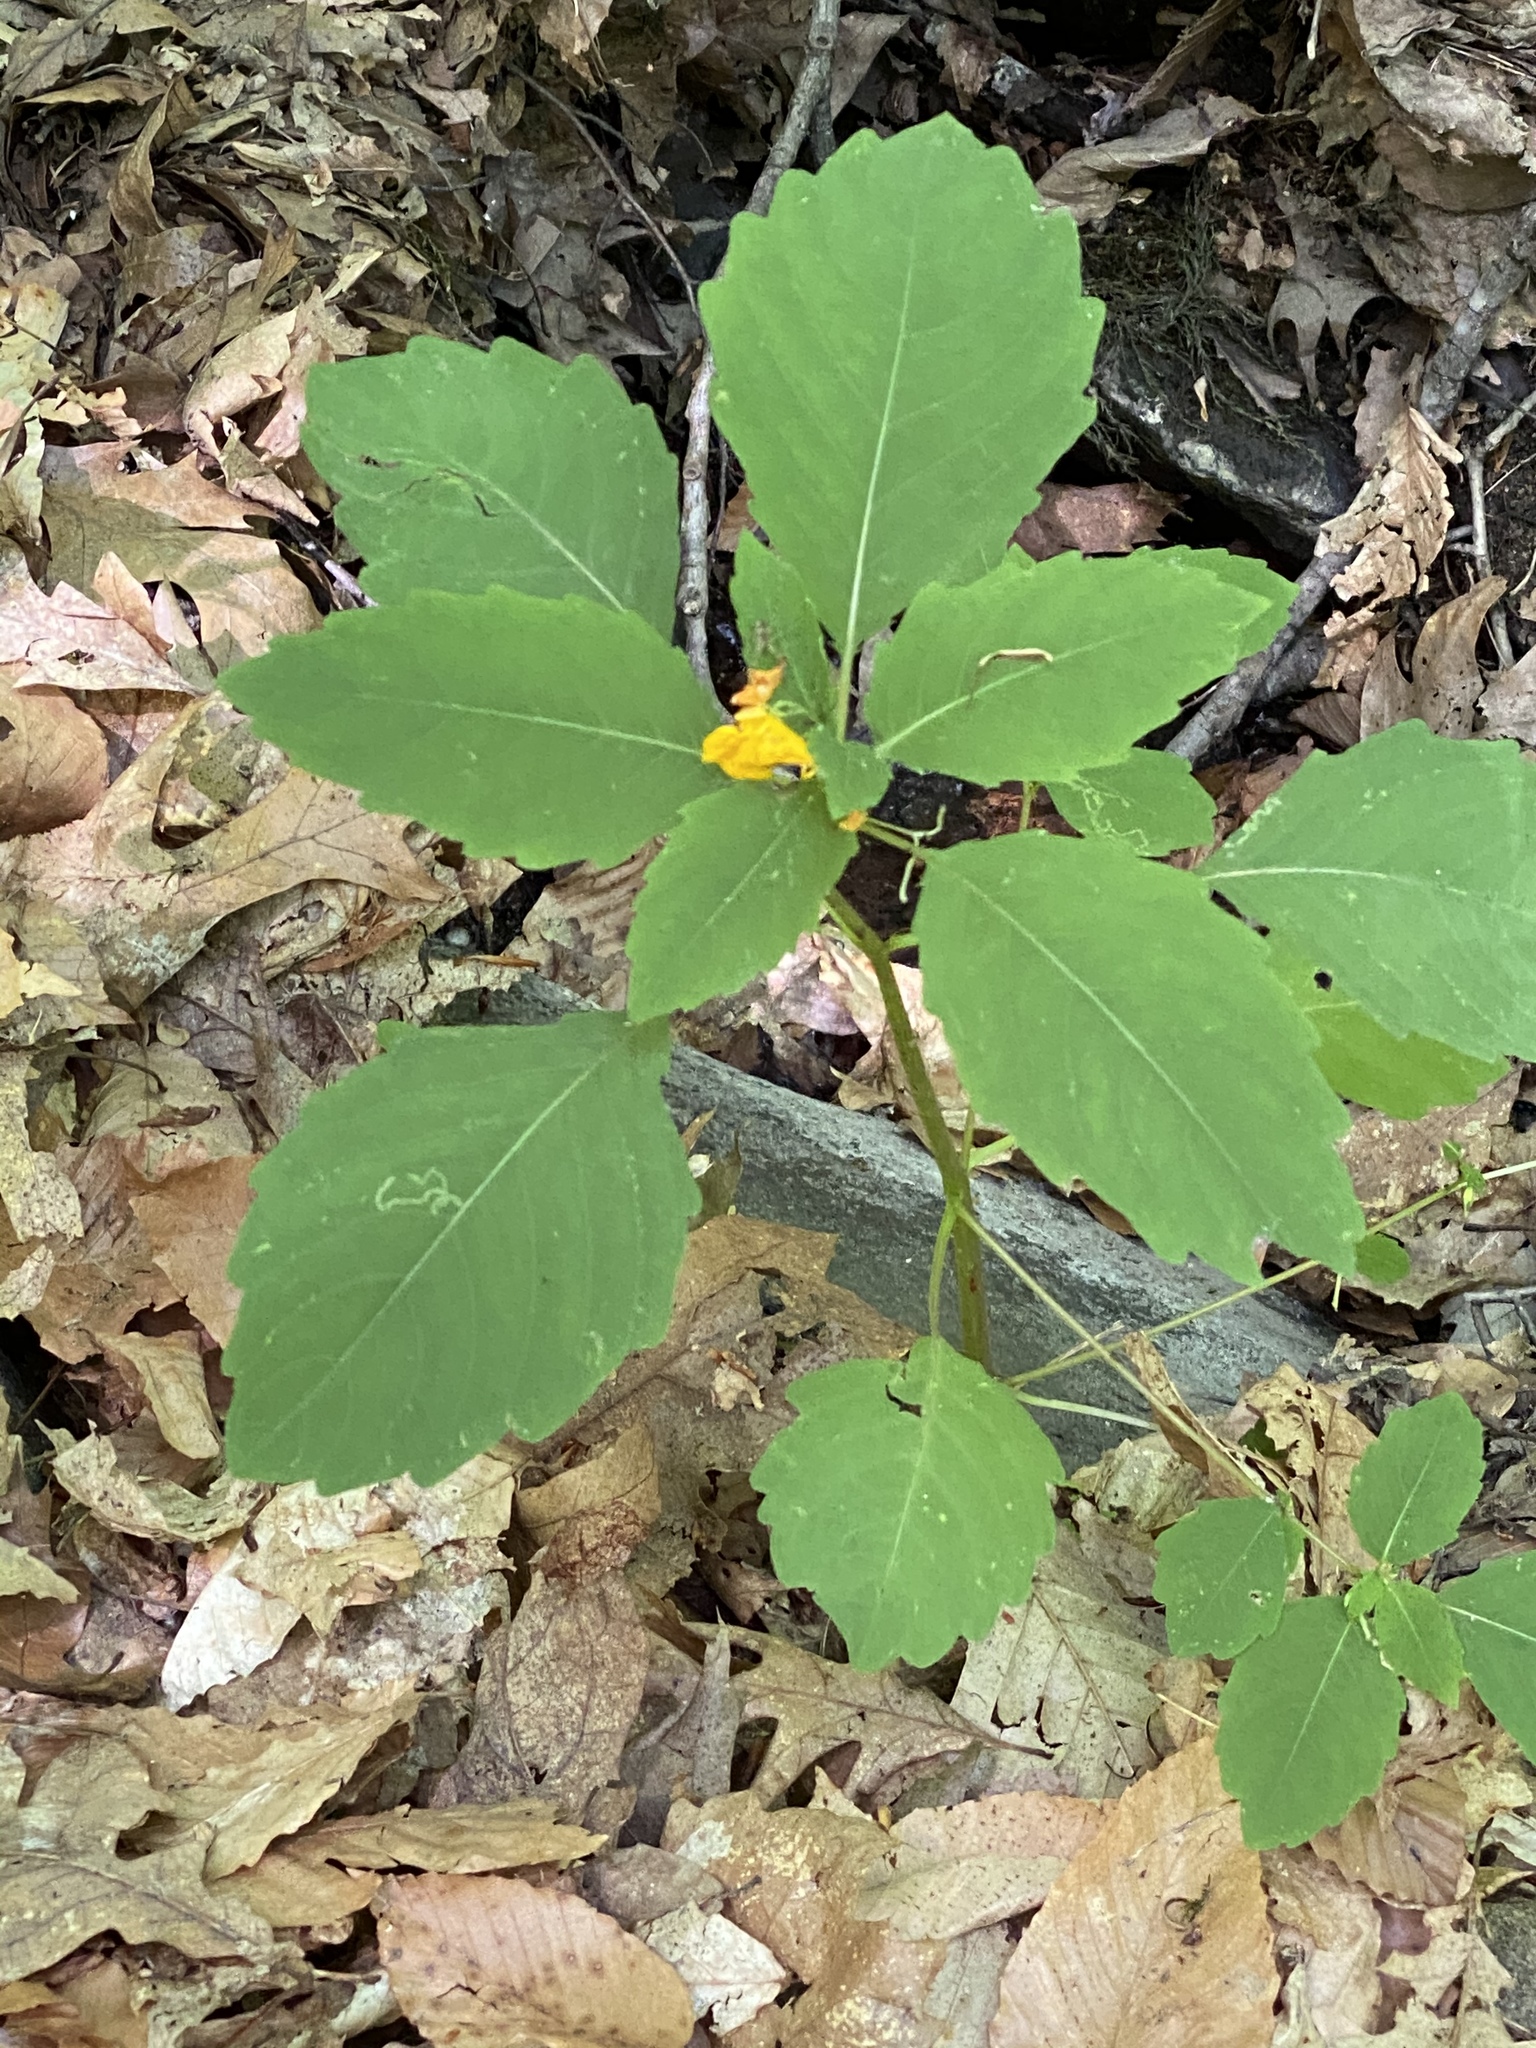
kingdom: Plantae
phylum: Tracheophyta
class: Magnoliopsida
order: Ericales
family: Balsaminaceae
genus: Impatiens
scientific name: Impatiens capensis
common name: Orange balsam
